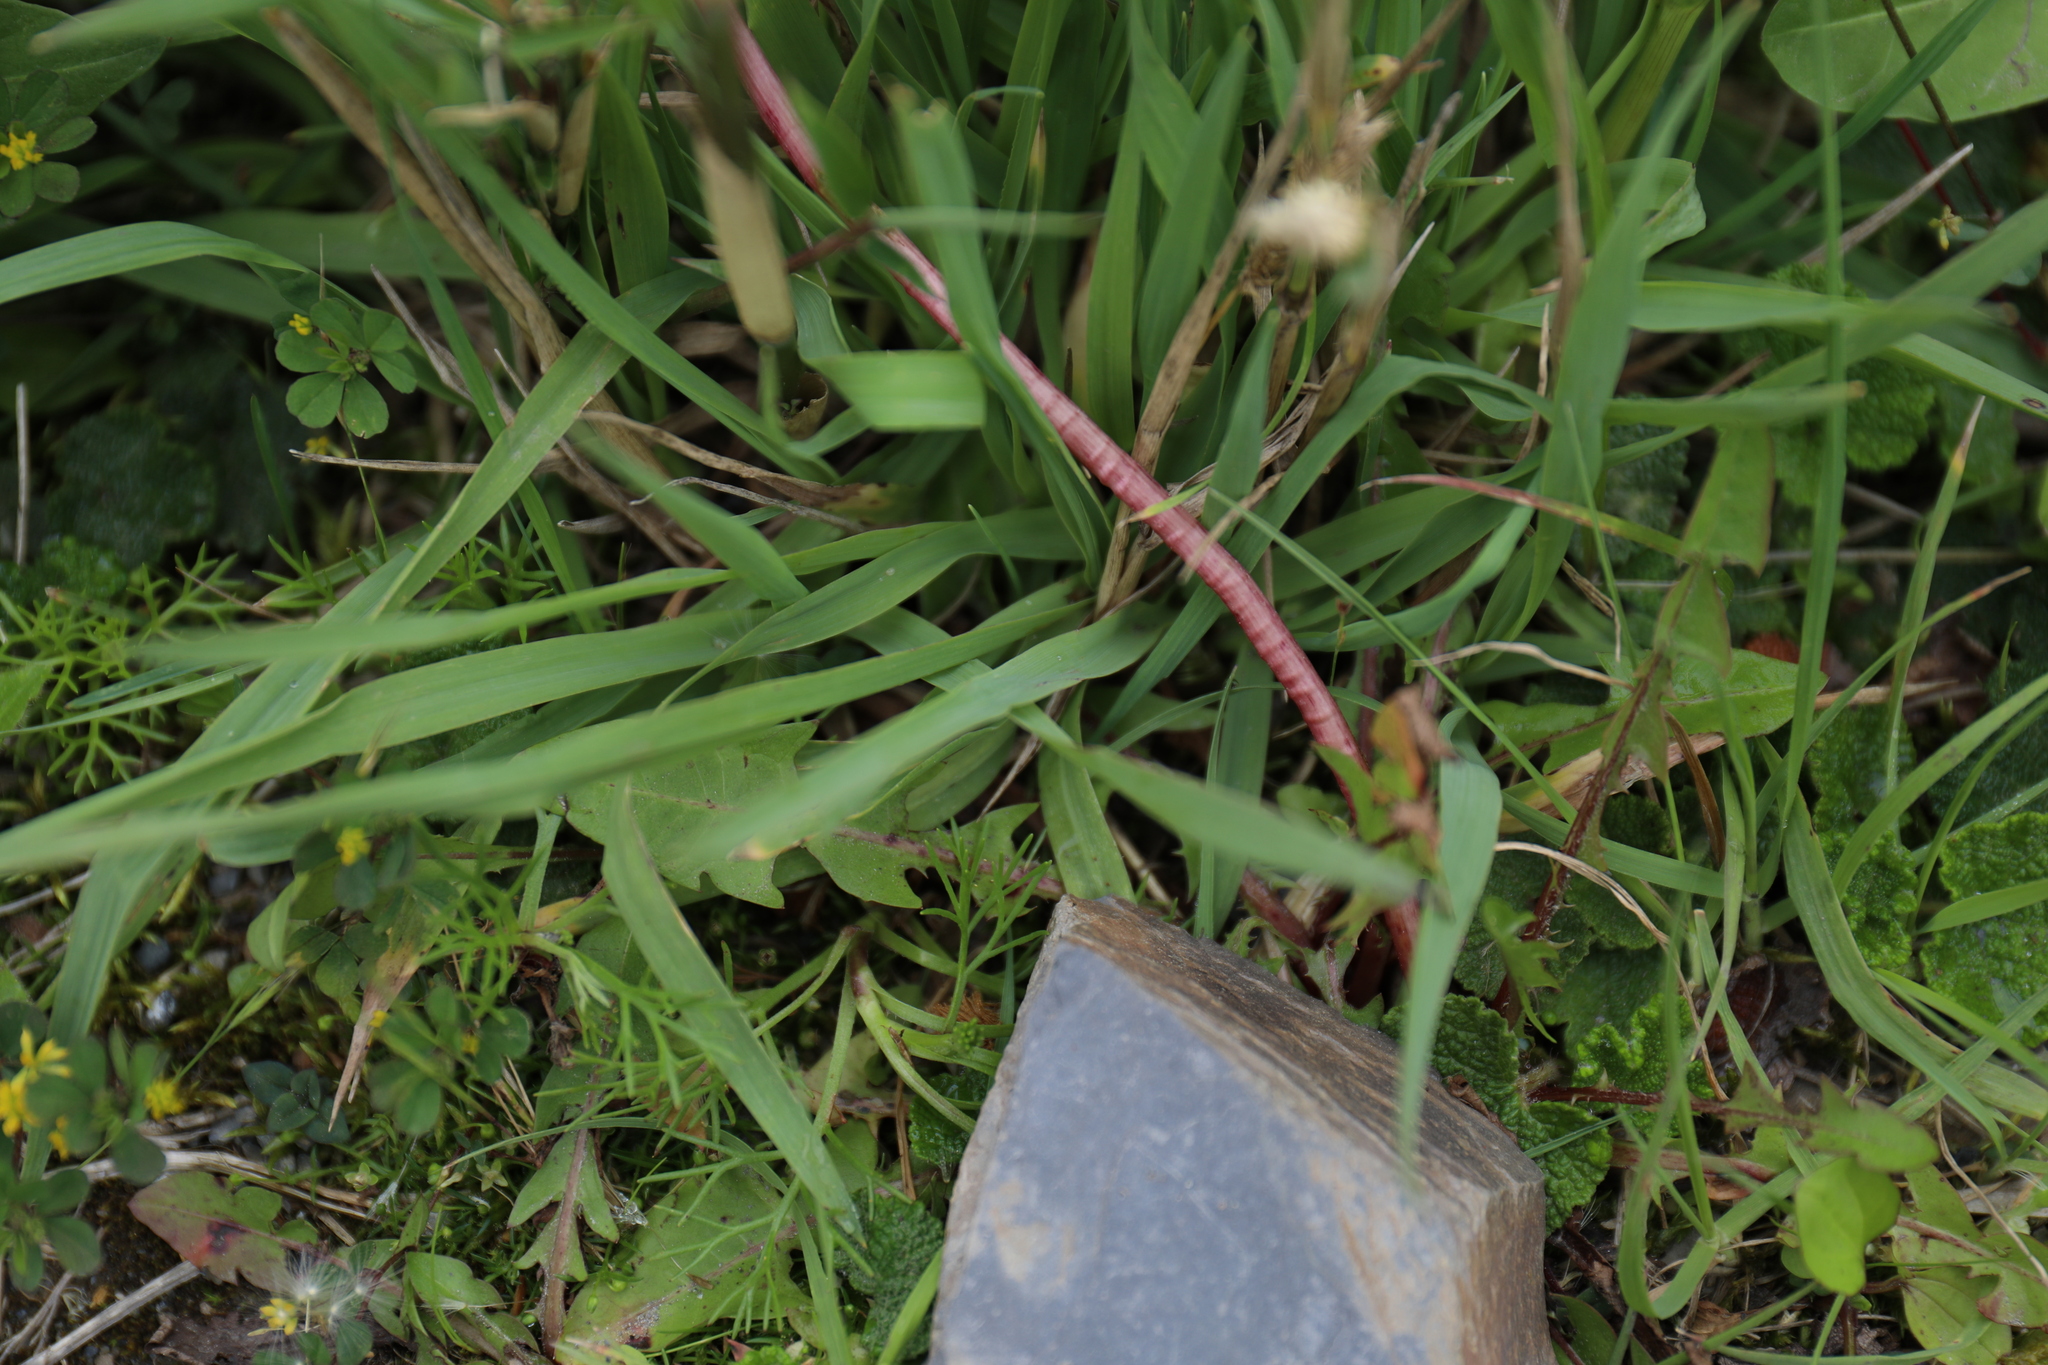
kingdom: Plantae
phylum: Tracheophyta
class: Liliopsida
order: Poales
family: Poaceae
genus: Phleum
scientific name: Phleum alpinum
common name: Alpine cat's-tail
